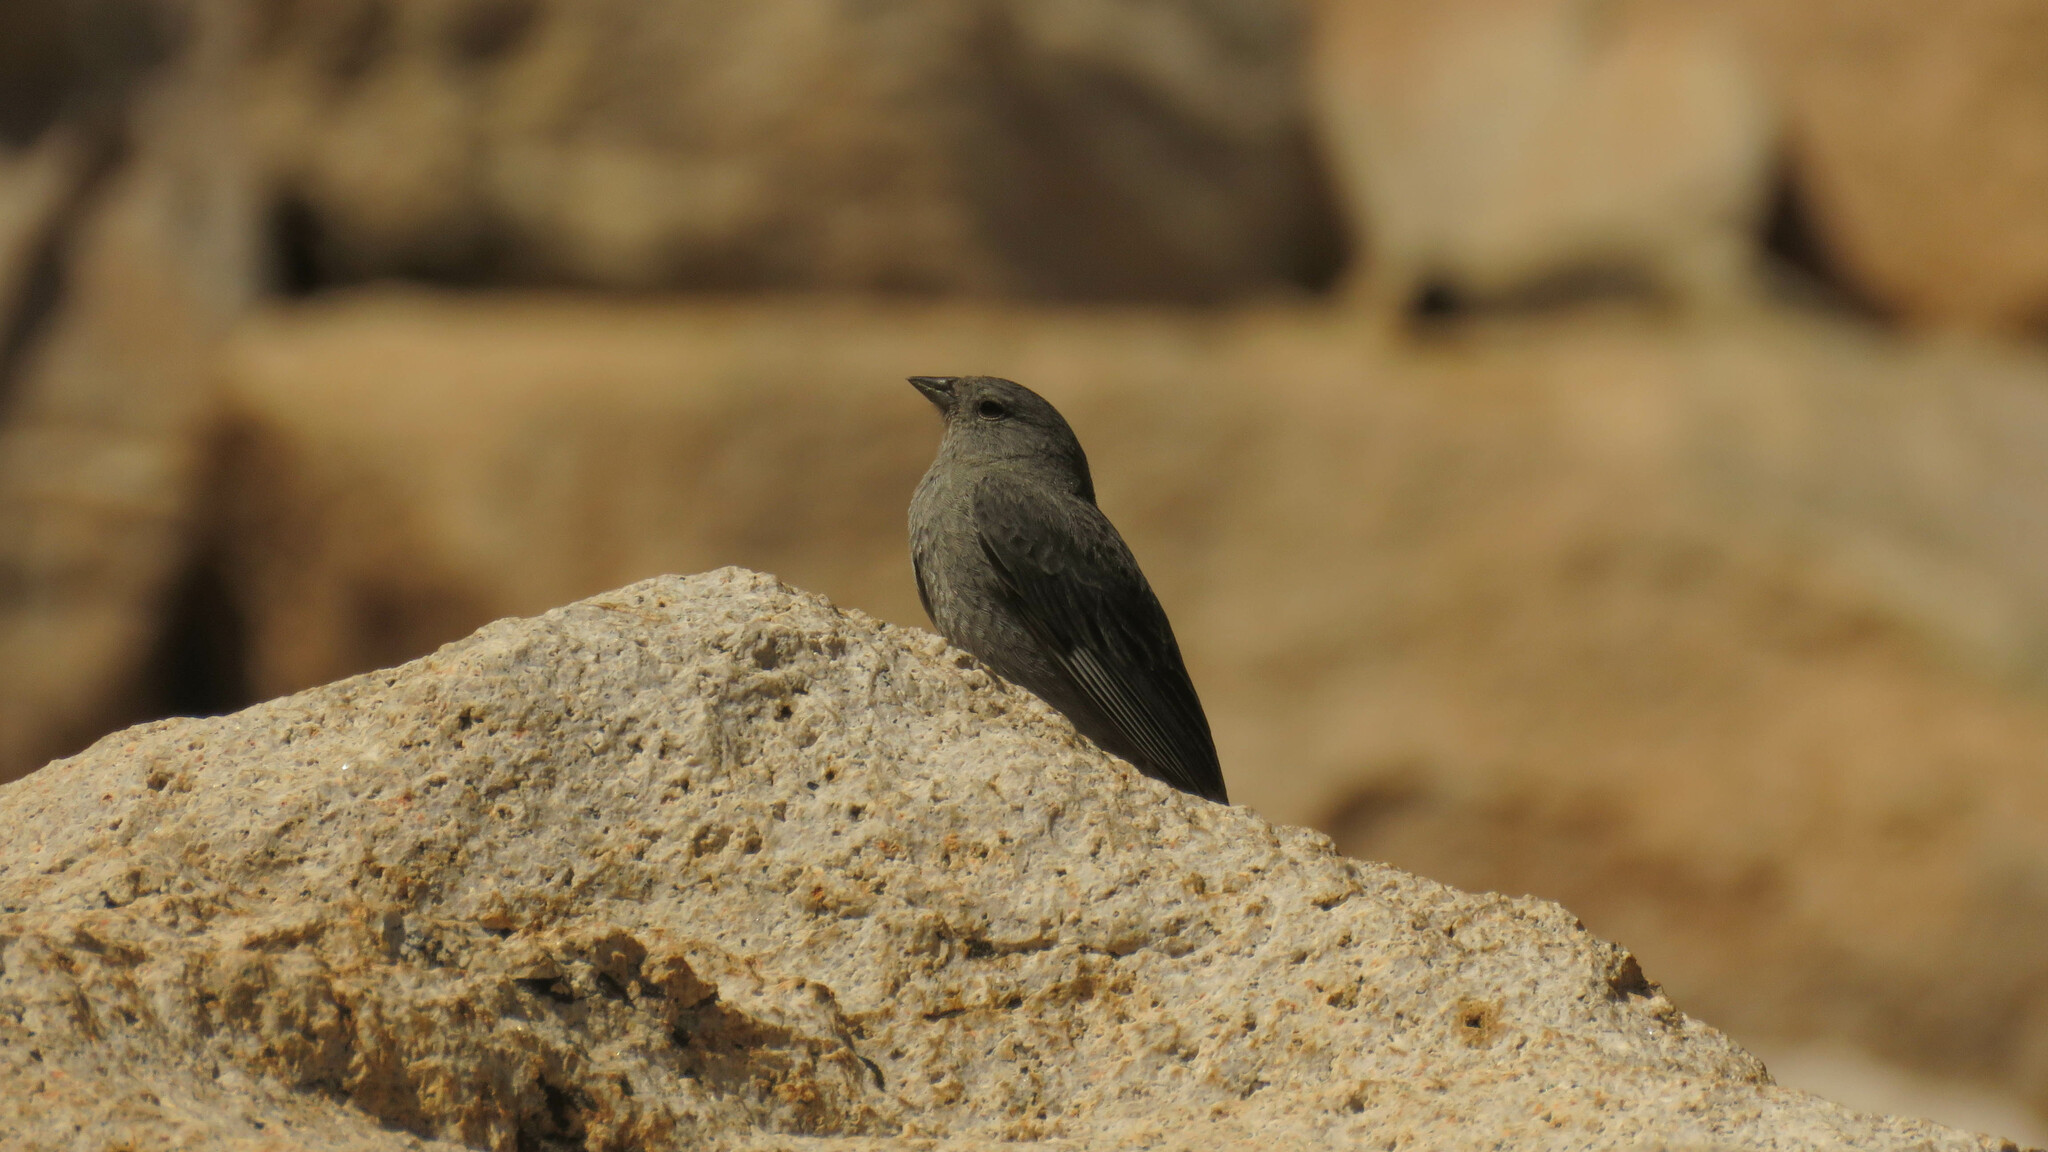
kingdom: Animalia
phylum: Chordata
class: Aves
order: Passeriformes
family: Thraupidae
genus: Geospizopsis
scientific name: Geospizopsis unicolor
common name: Plumbeous sierra-finch
